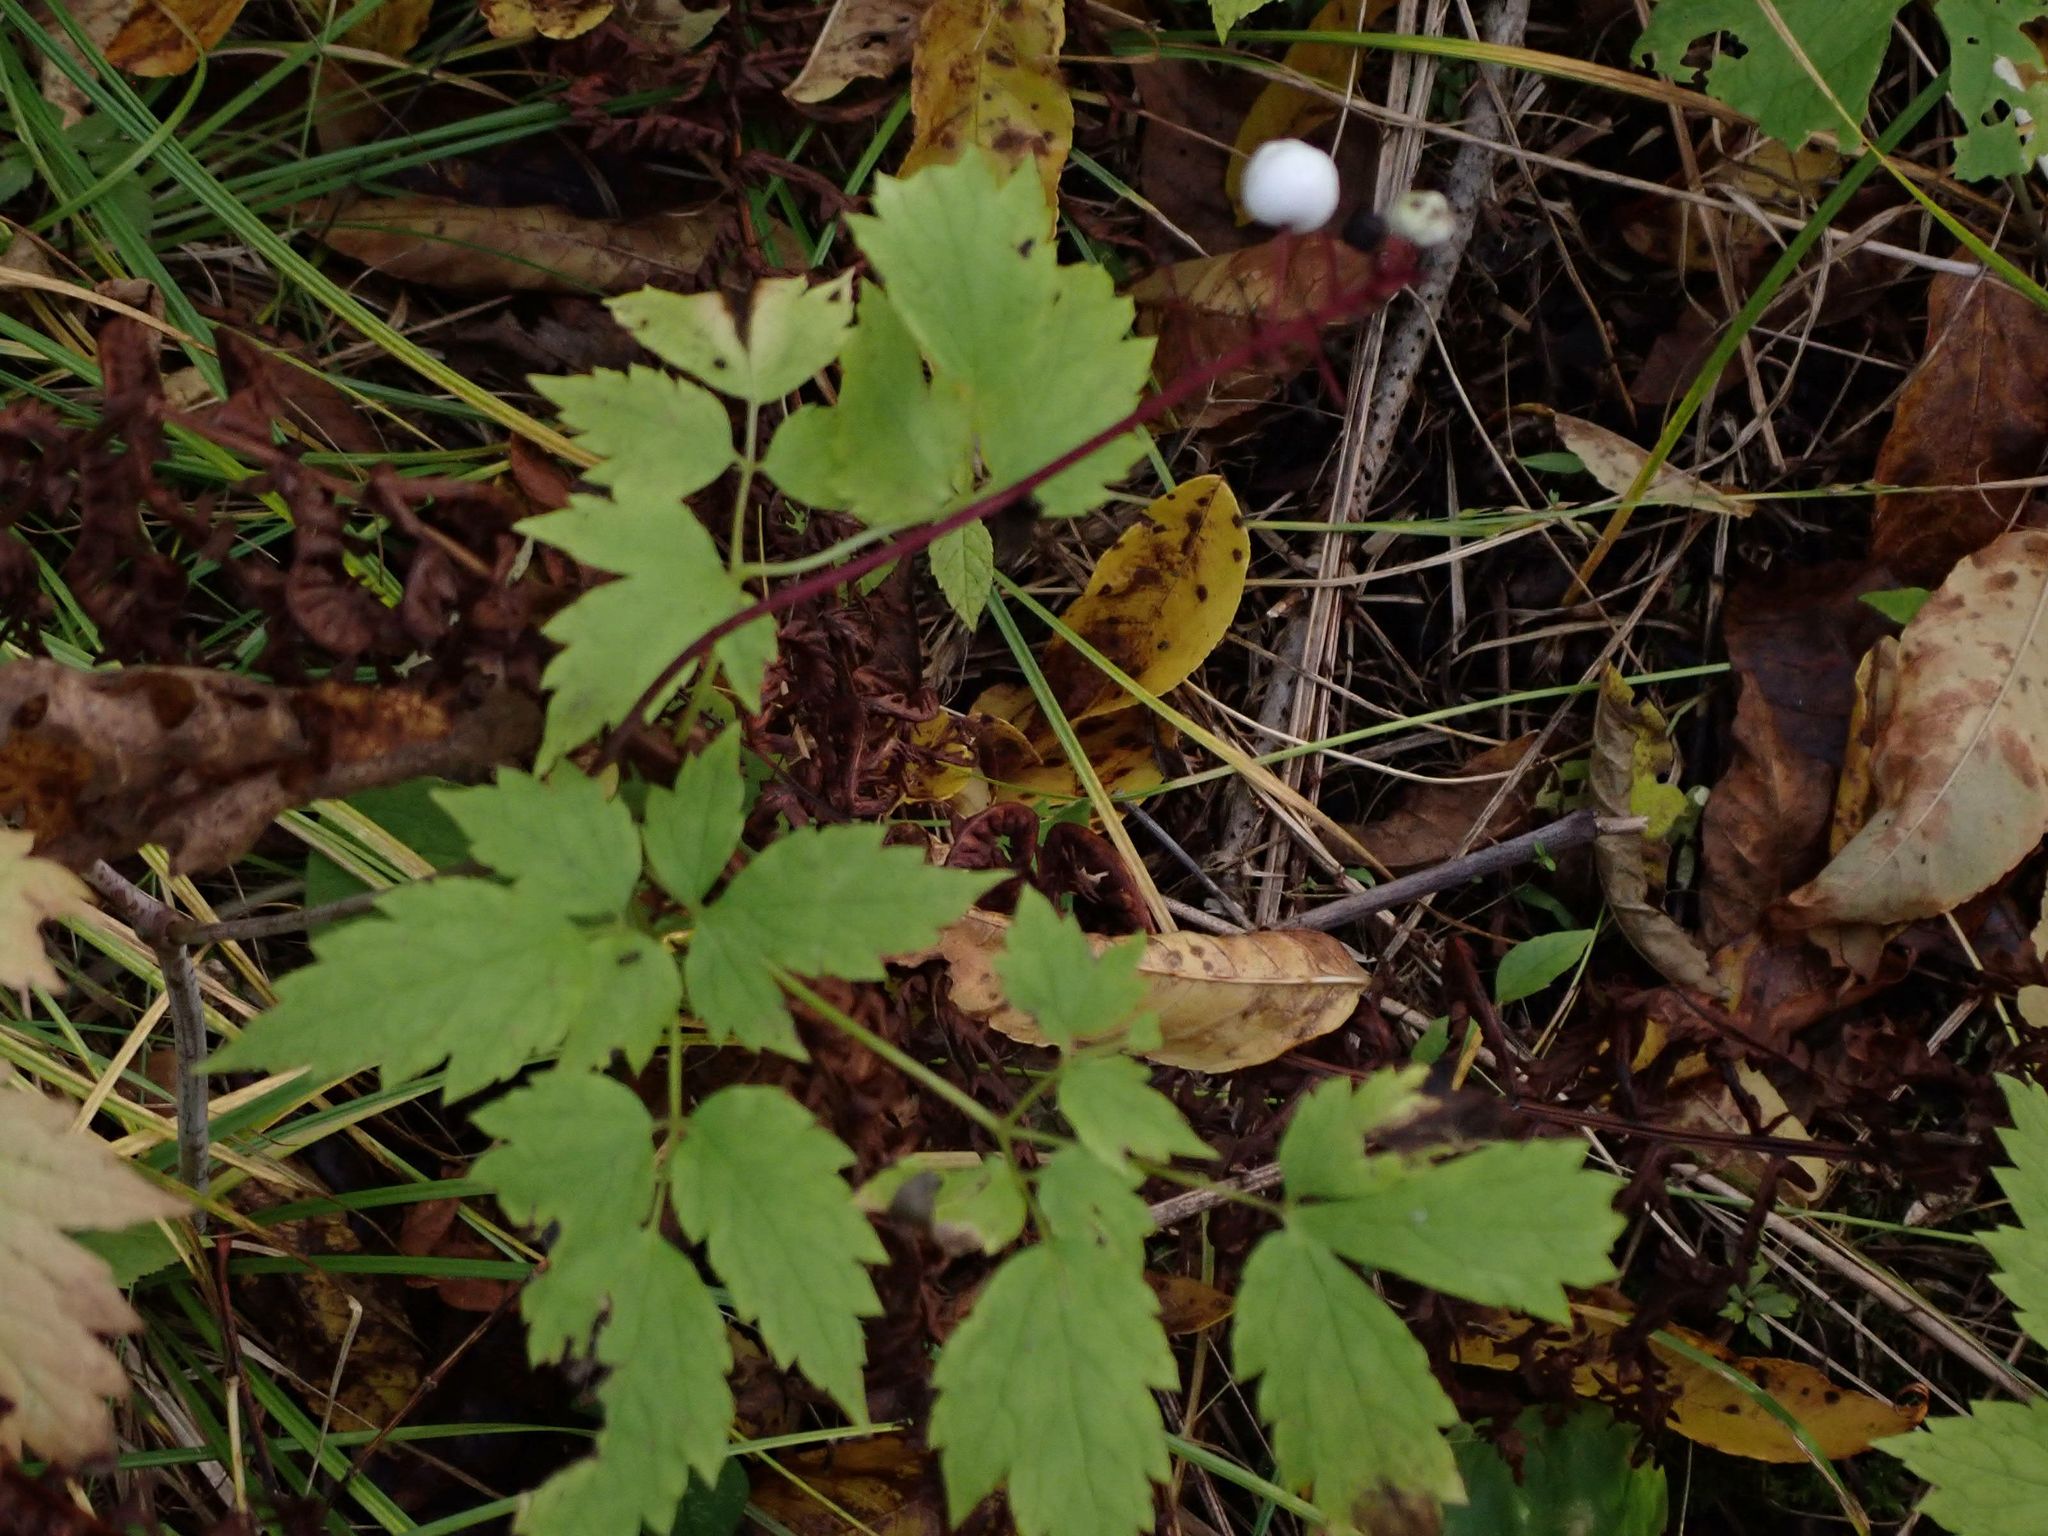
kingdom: Plantae
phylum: Tracheophyta
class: Magnoliopsida
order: Ranunculales
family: Ranunculaceae
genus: Actaea
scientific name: Actaea rubra
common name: Red baneberry
